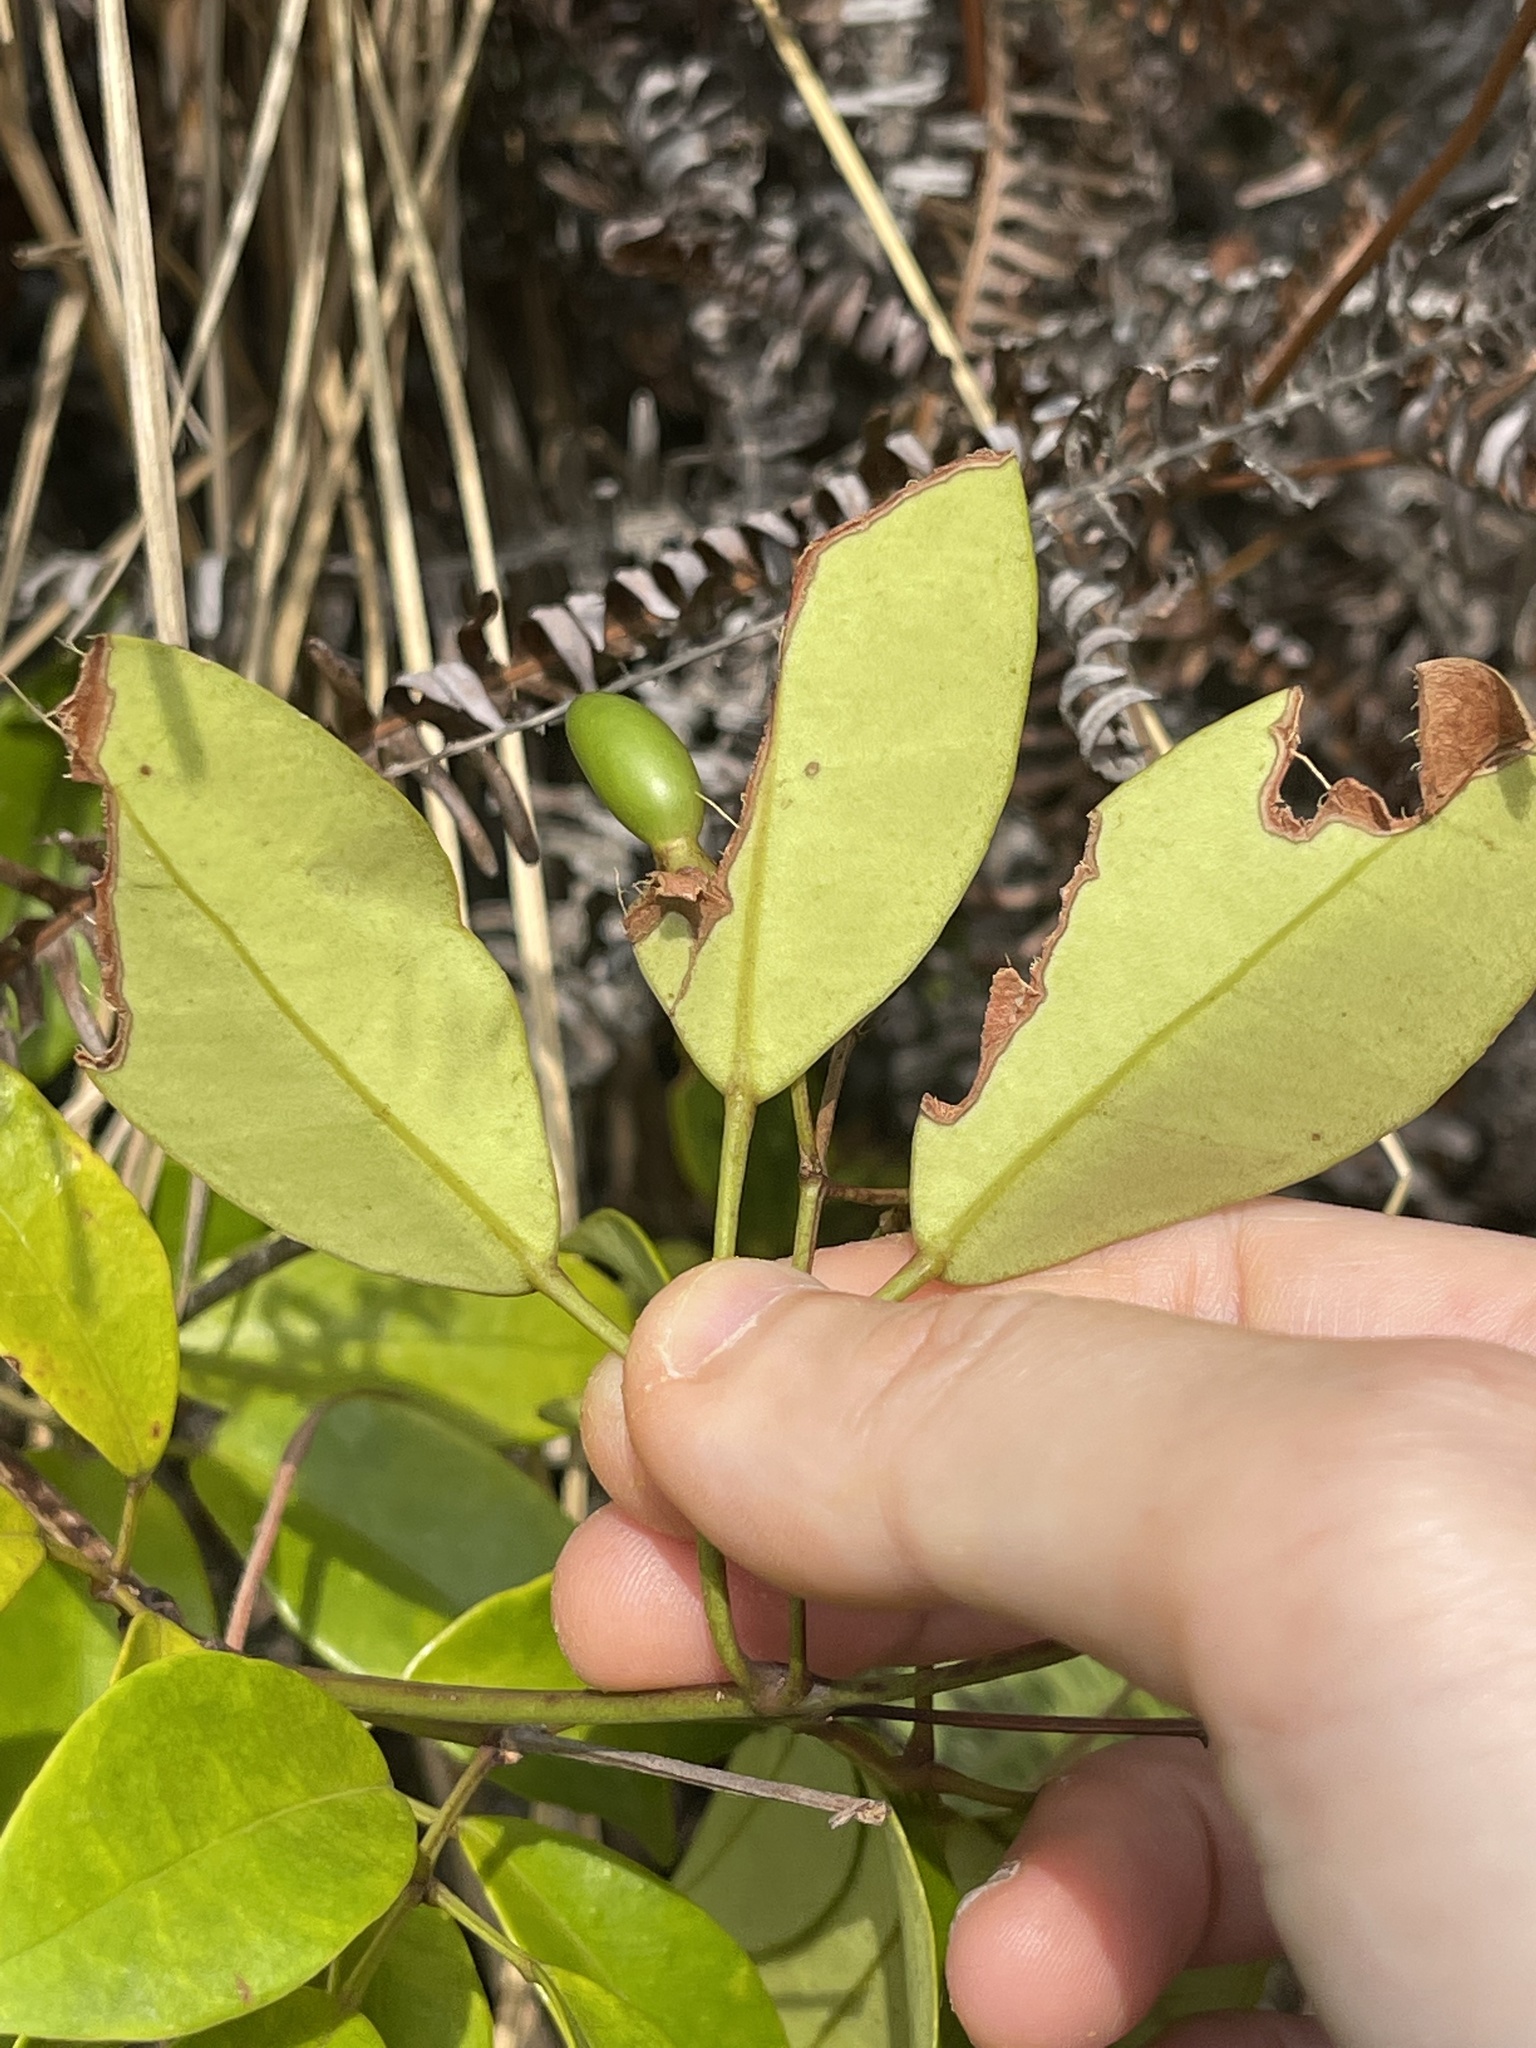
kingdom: Plantae
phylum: Tracheophyta
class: Magnoliopsida
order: Lamiales
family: Oleaceae
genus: Jasminum
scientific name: Jasminum lanceolaria
